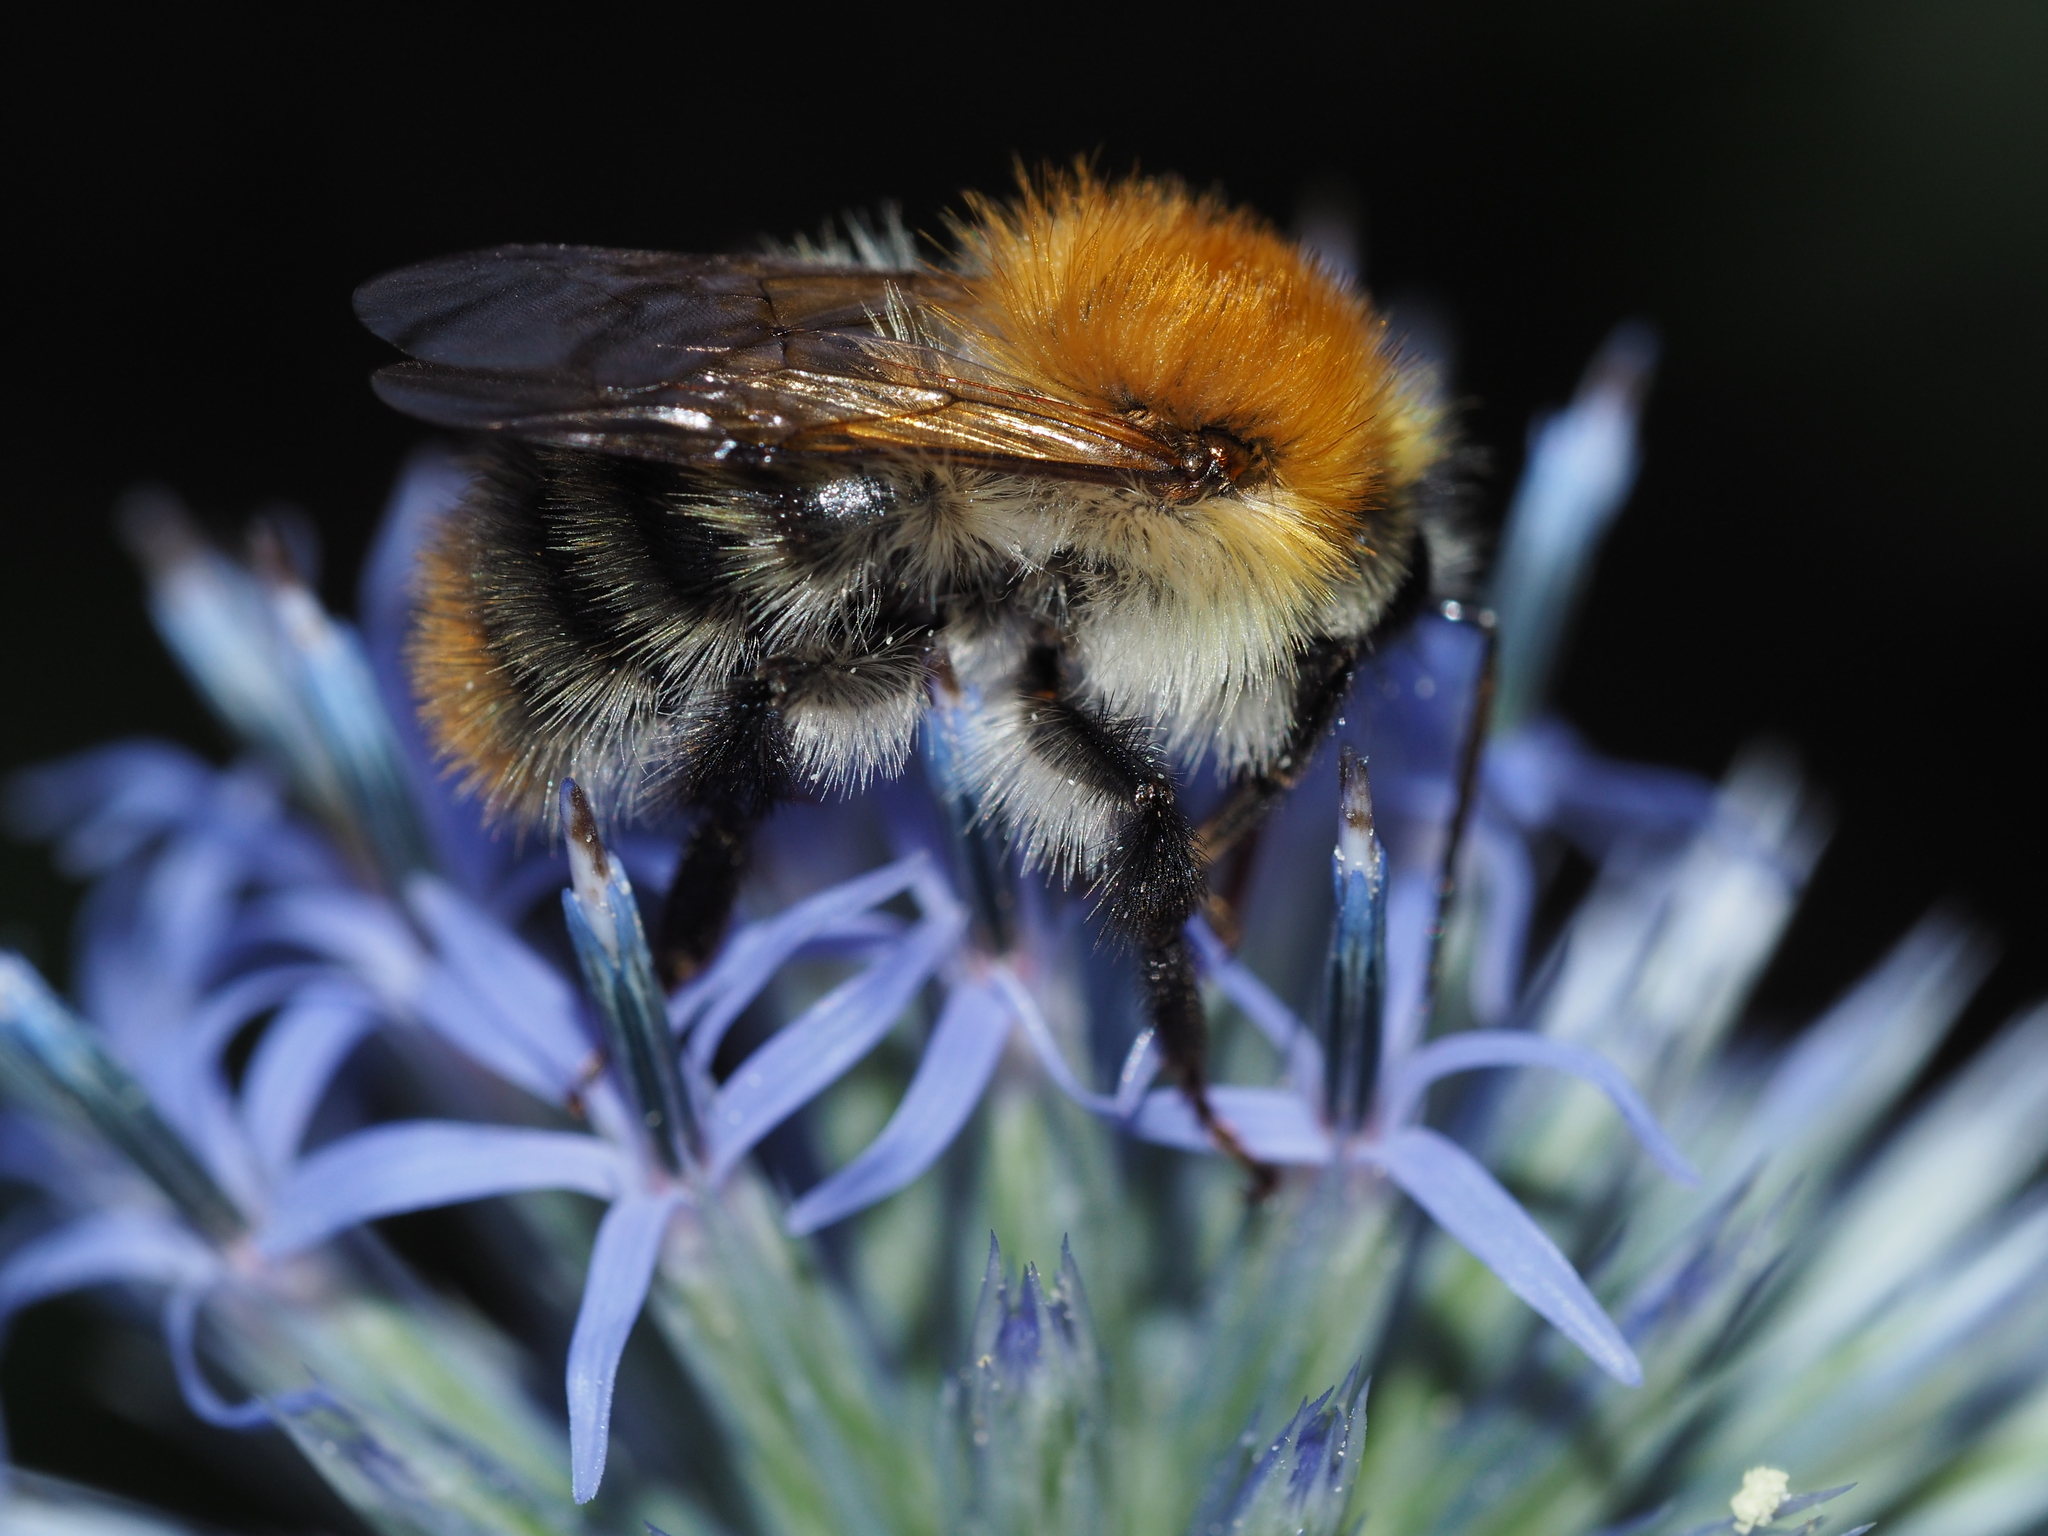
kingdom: Animalia
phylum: Arthropoda
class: Insecta
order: Hymenoptera
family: Apidae
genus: Bombus
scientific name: Bombus pascuorum
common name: Common carder bee
